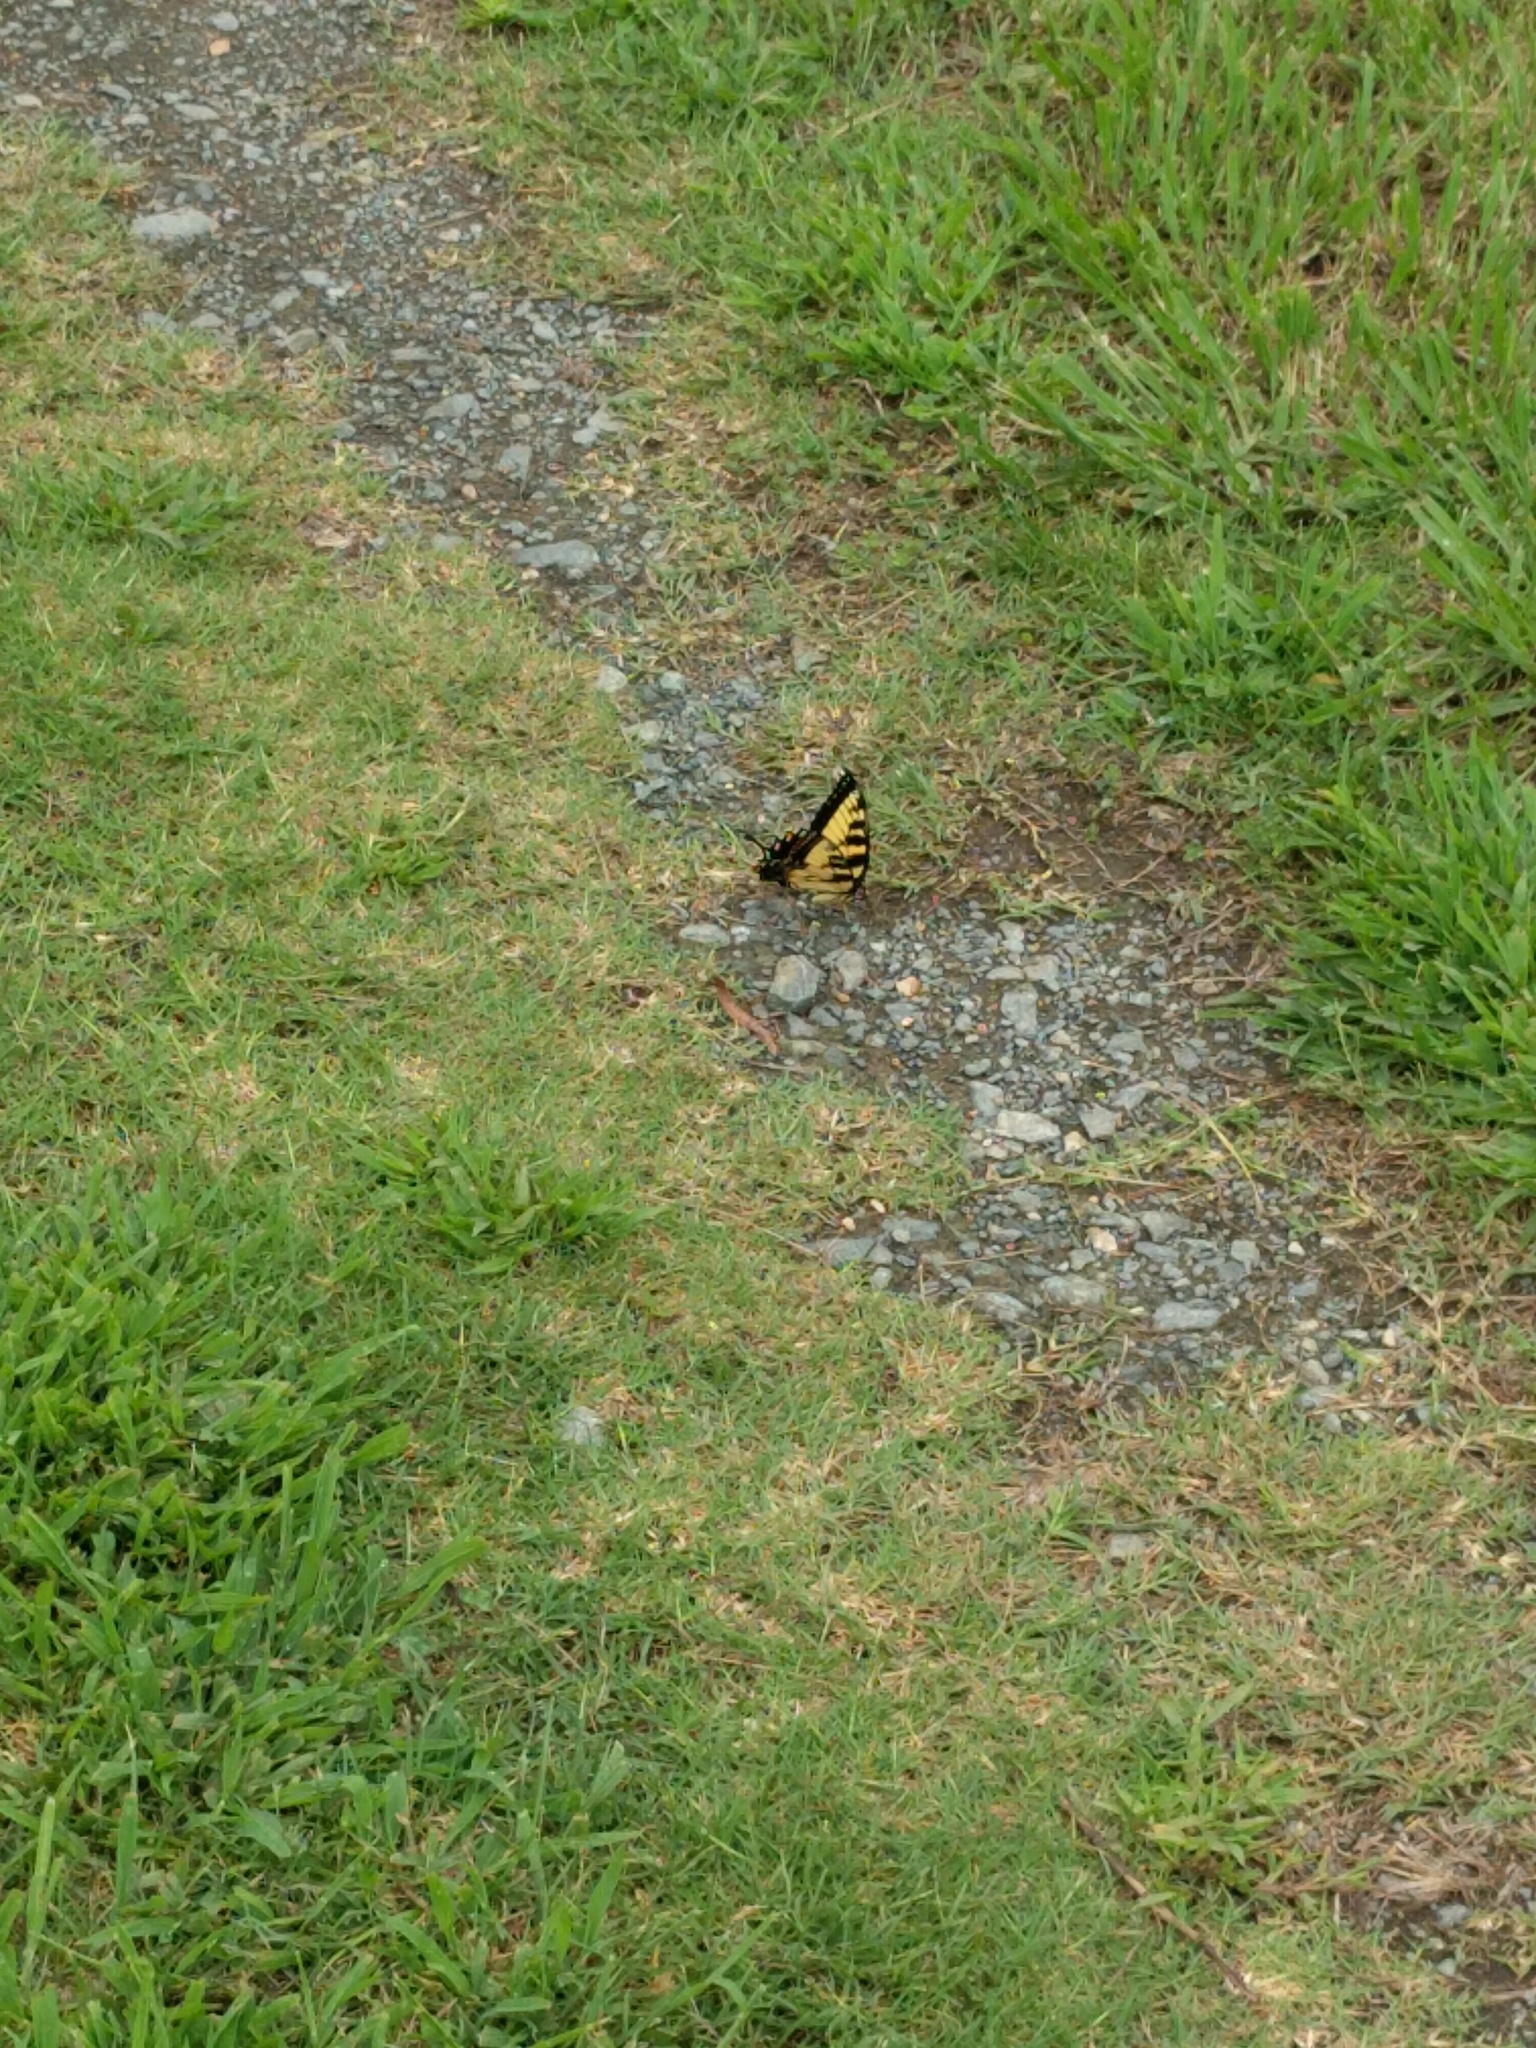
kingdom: Animalia
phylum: Arthropoda
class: Insecta
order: Lepidoptera
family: Papilionidae
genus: Papilio
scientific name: Papilio glaucus
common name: Tiger swallowtail
